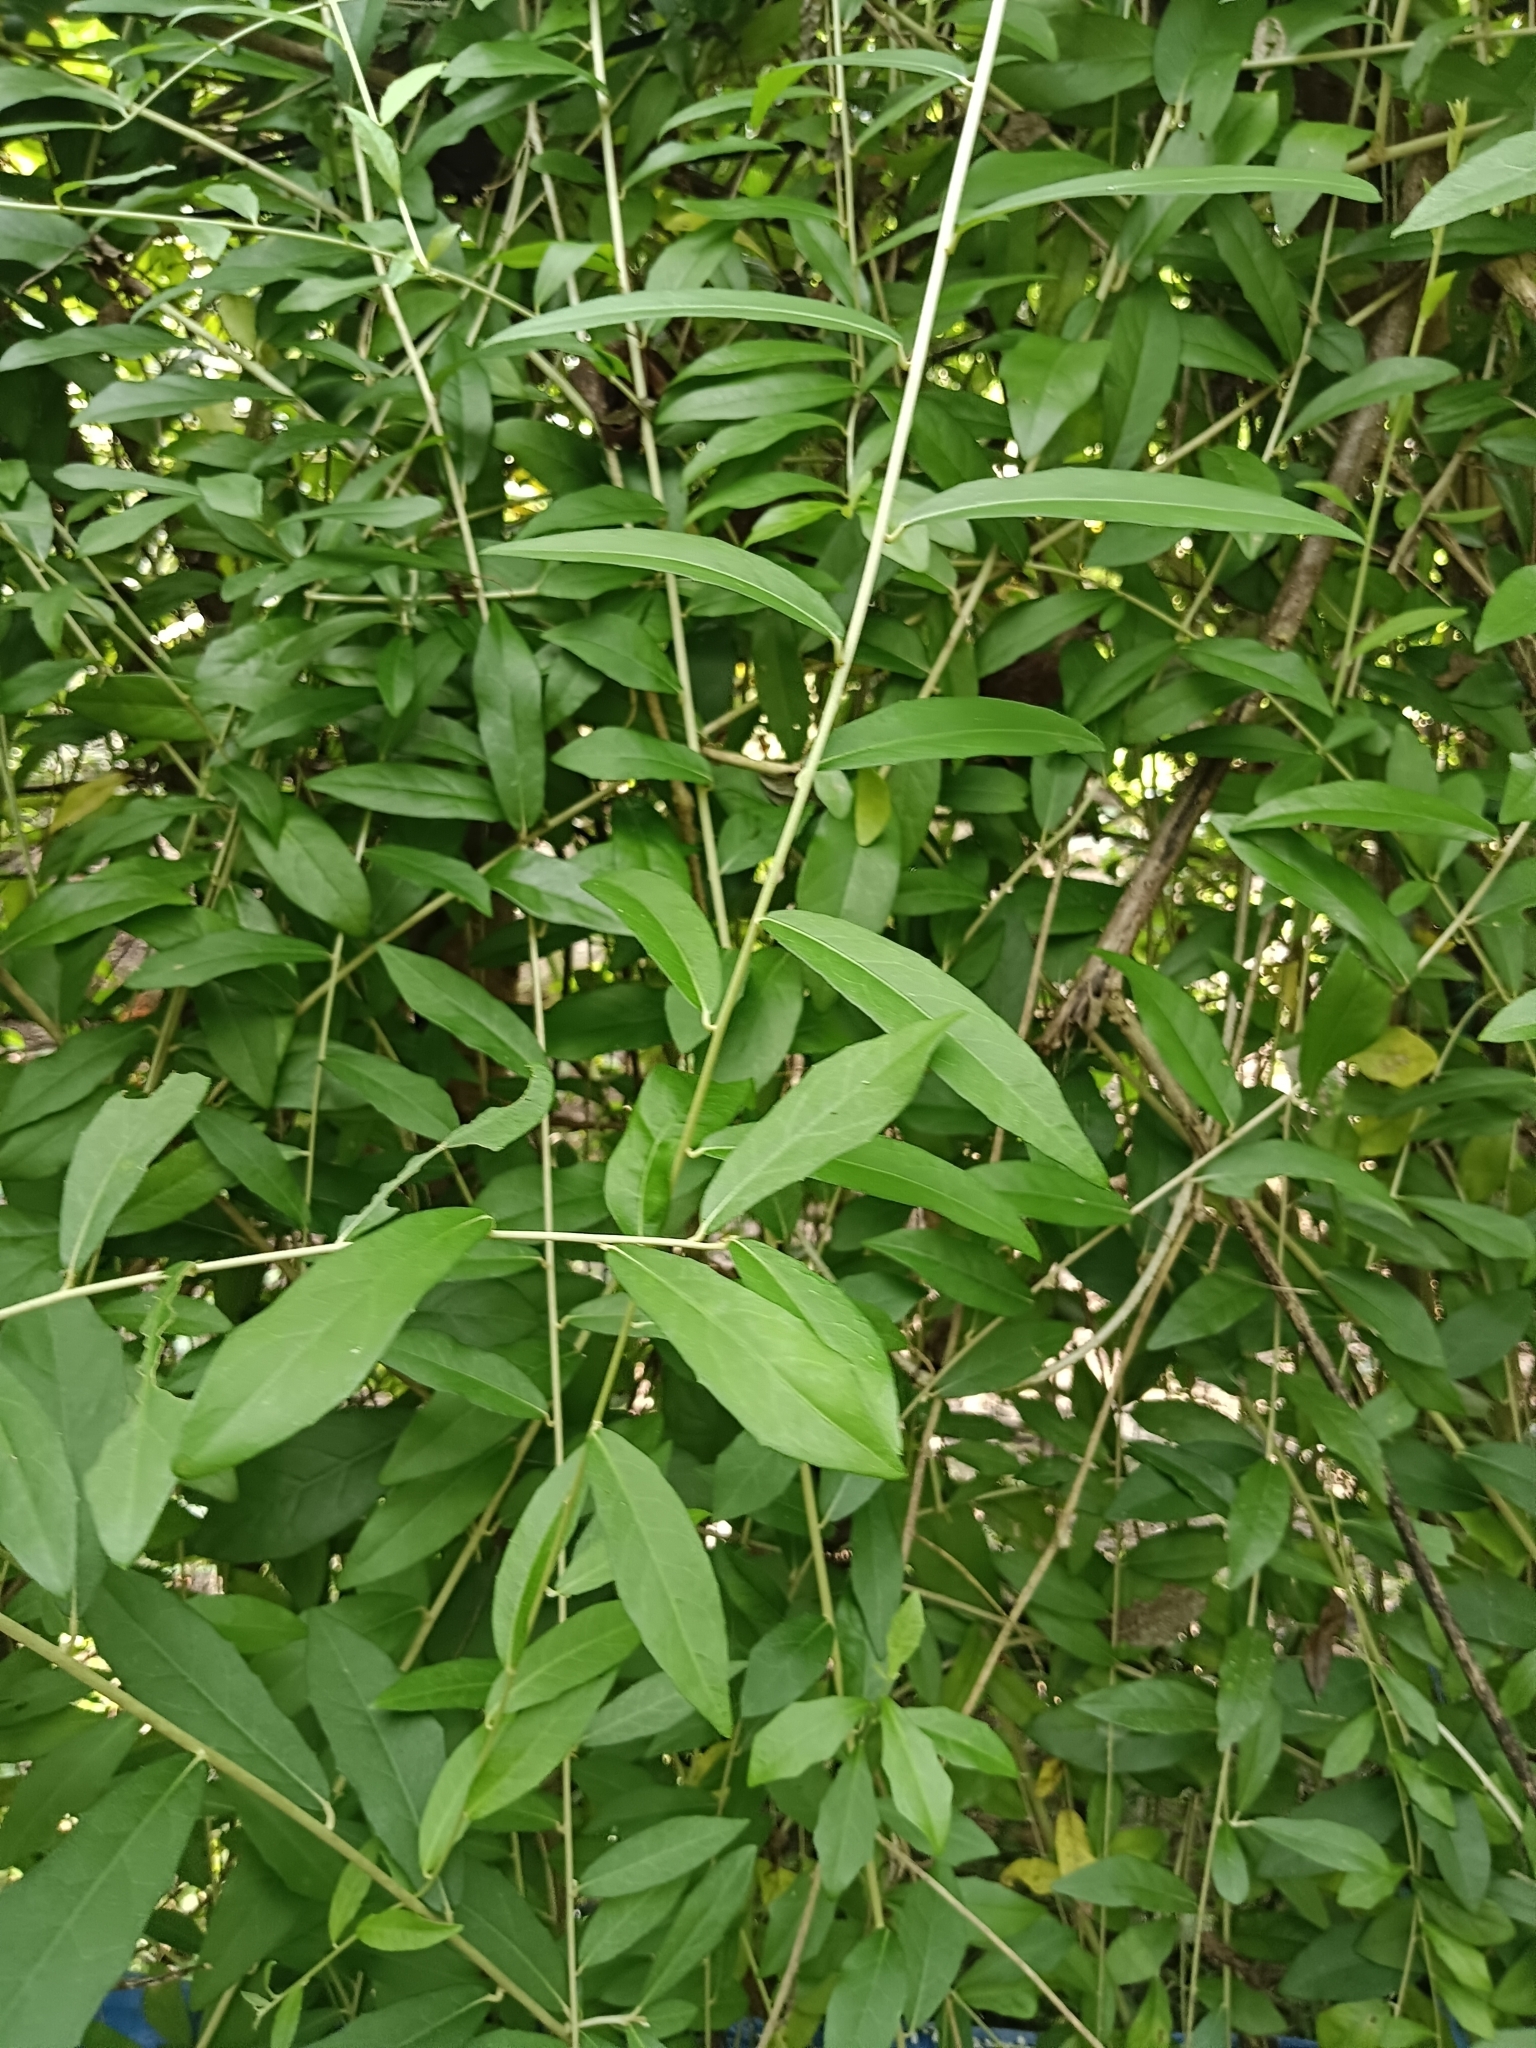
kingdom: Plantae
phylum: Tracheophyta
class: Magnoliopsida
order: Asterales
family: Asteraceae
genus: Tarlmounia
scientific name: Tarlmounia elliptica
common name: Kheua sa lot
